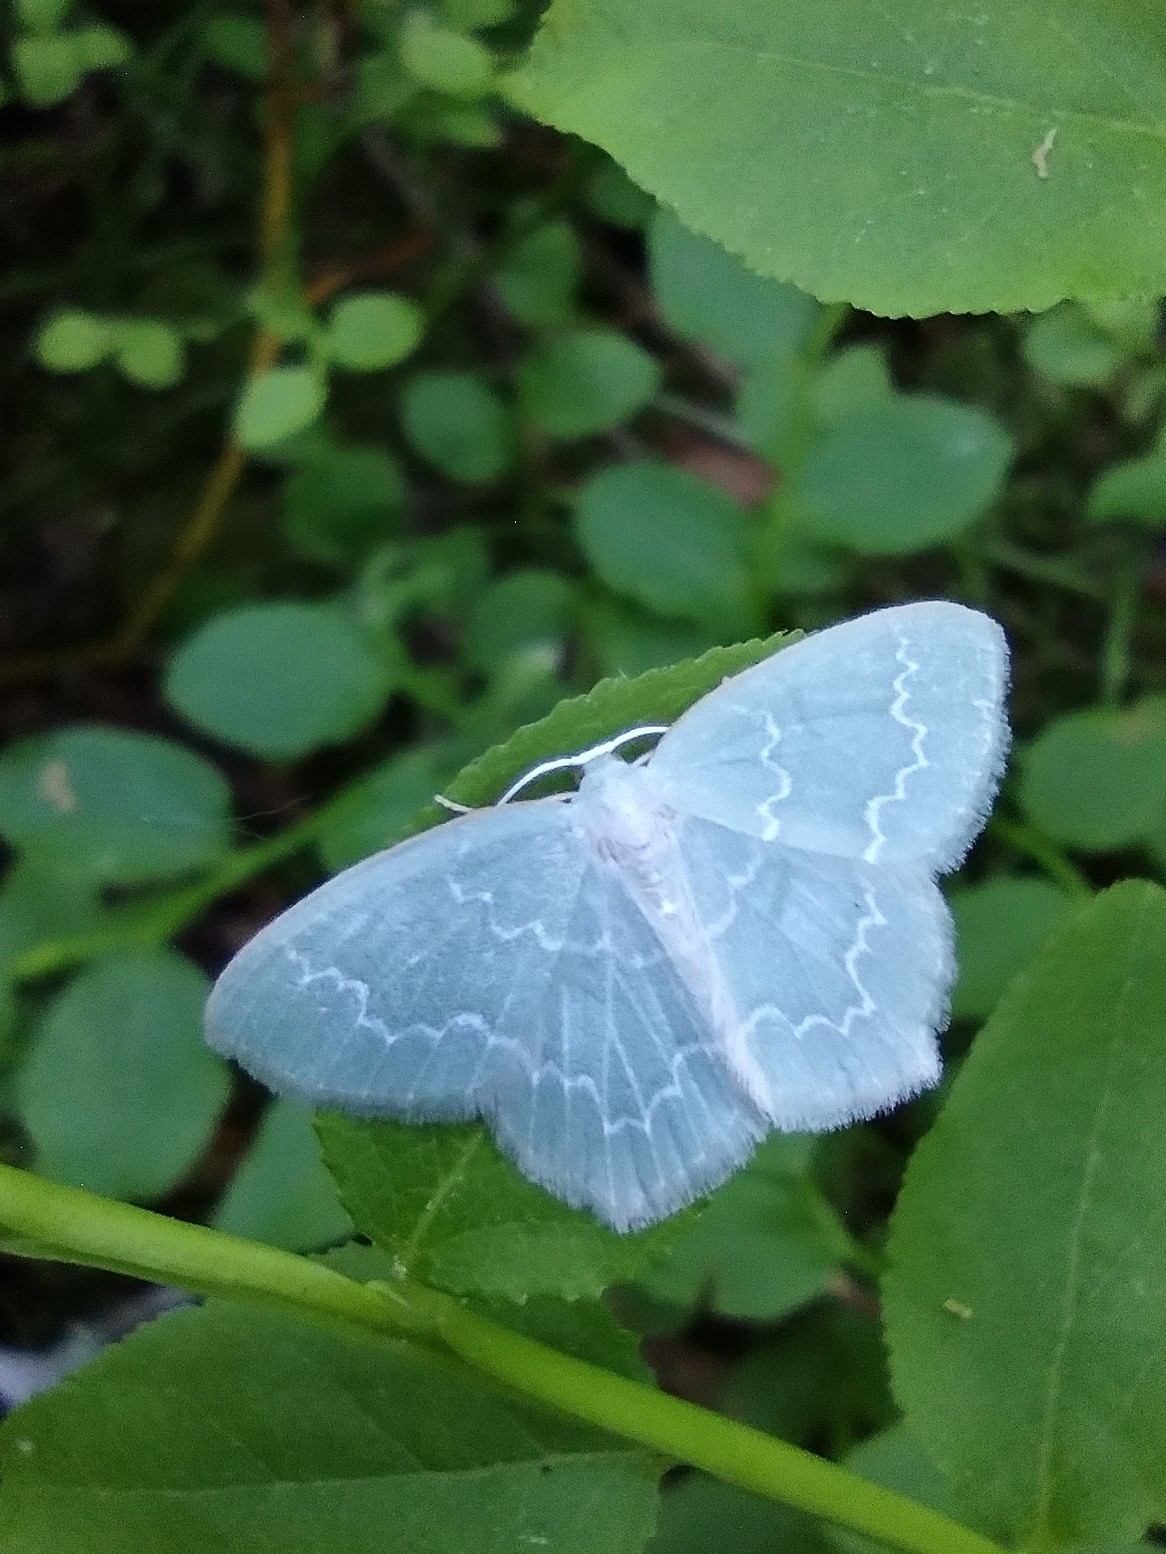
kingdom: Animalia
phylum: Arthropoda
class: Insecta
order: Lepidoptera
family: Geometridae
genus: Jodis
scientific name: Jodis putata
